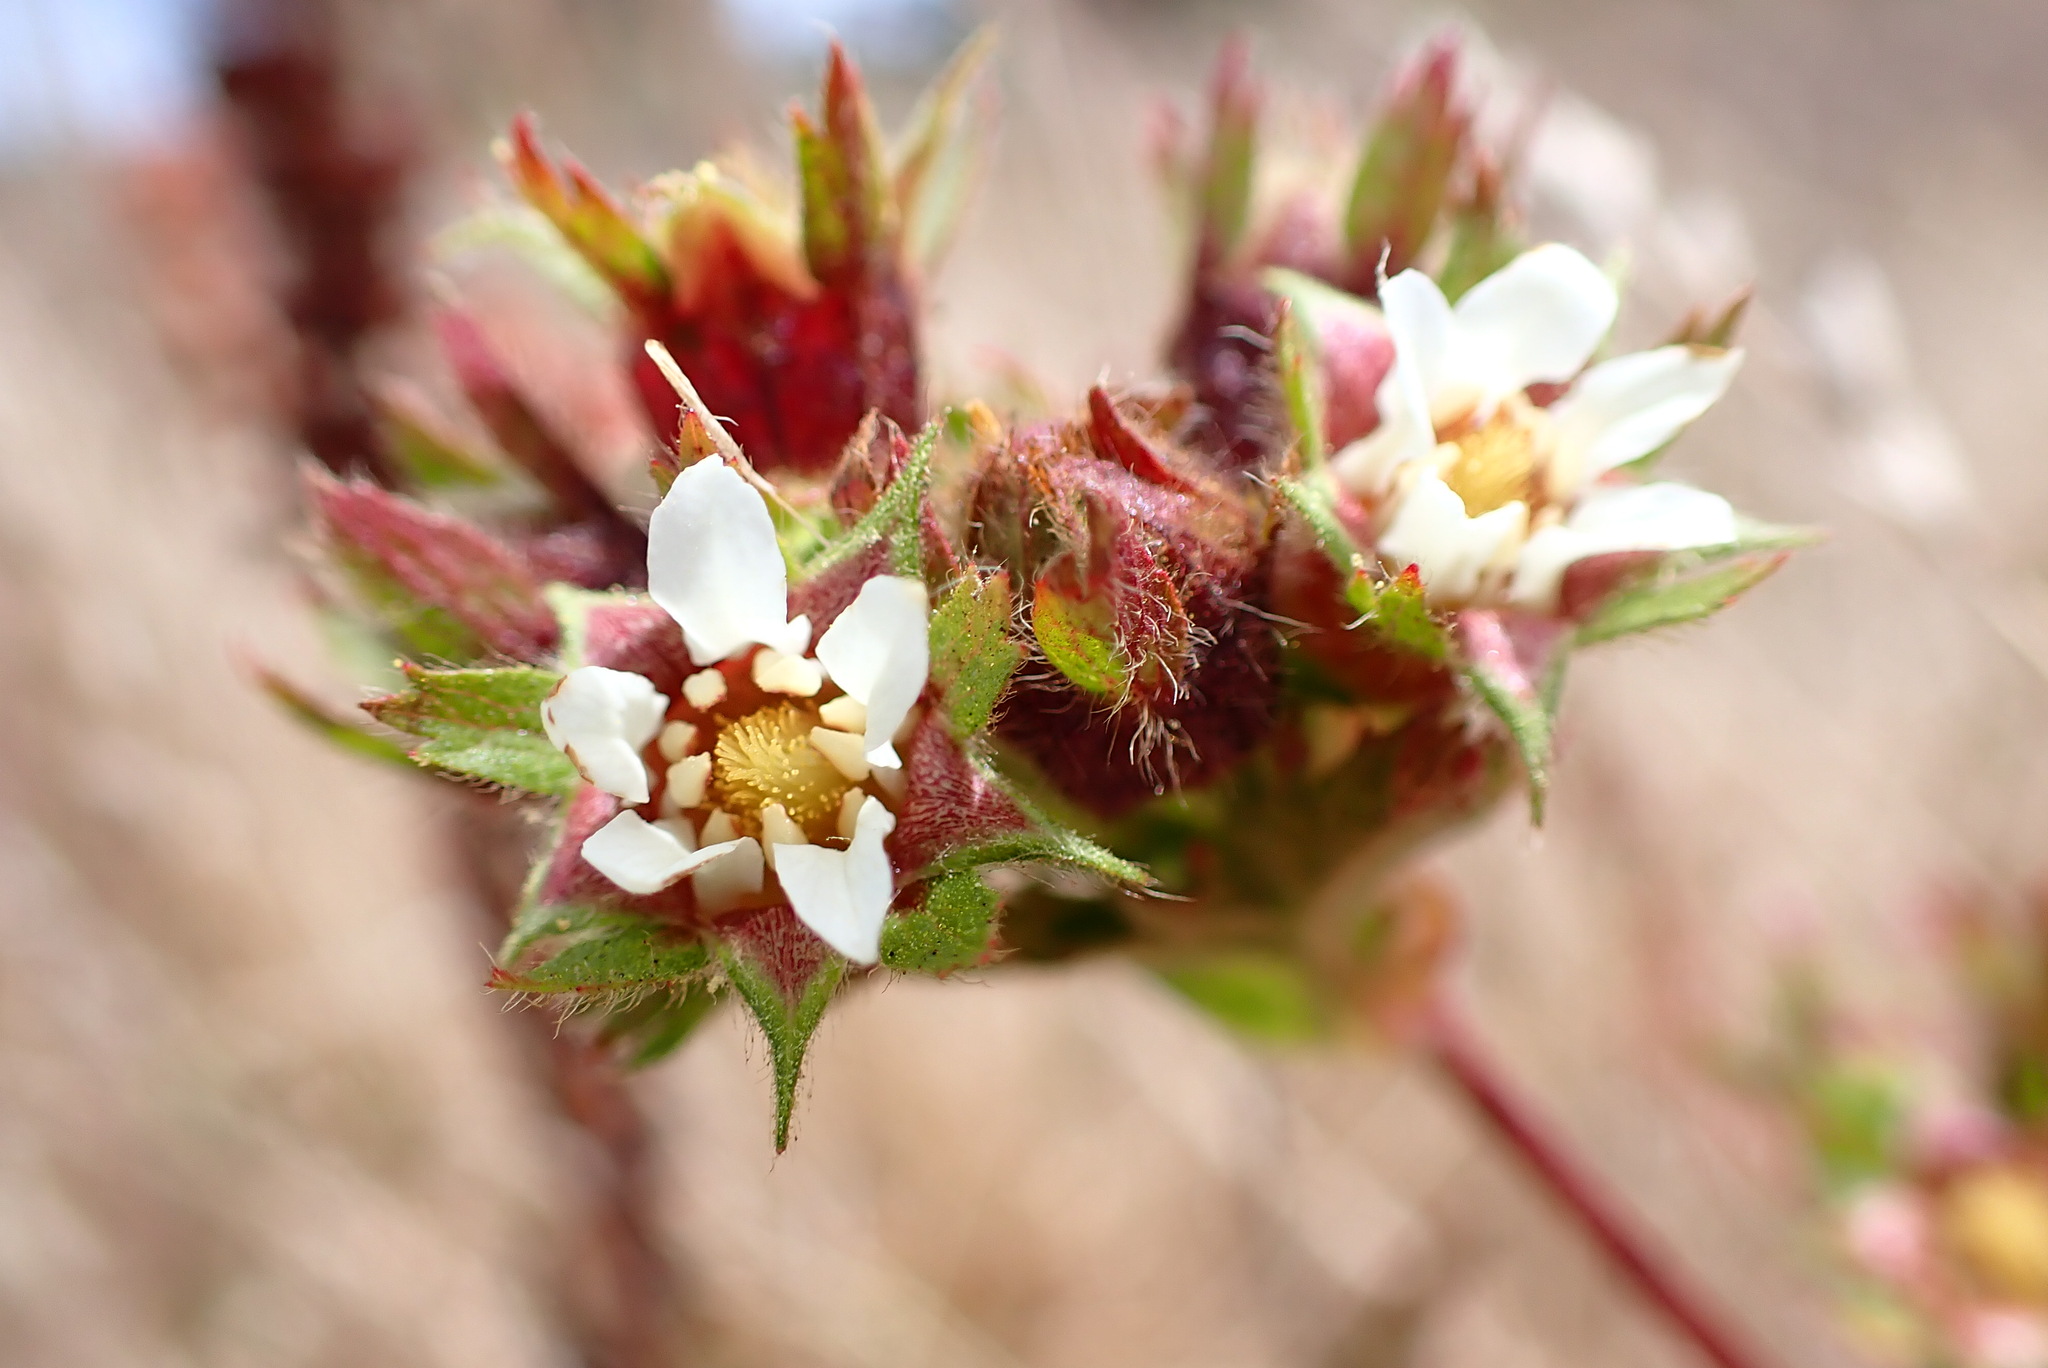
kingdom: Plantae
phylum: Tracheophyta
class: Magnoliopsida
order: Rosales
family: Rosaceae
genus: Potentilla
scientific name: Potentilla californica
